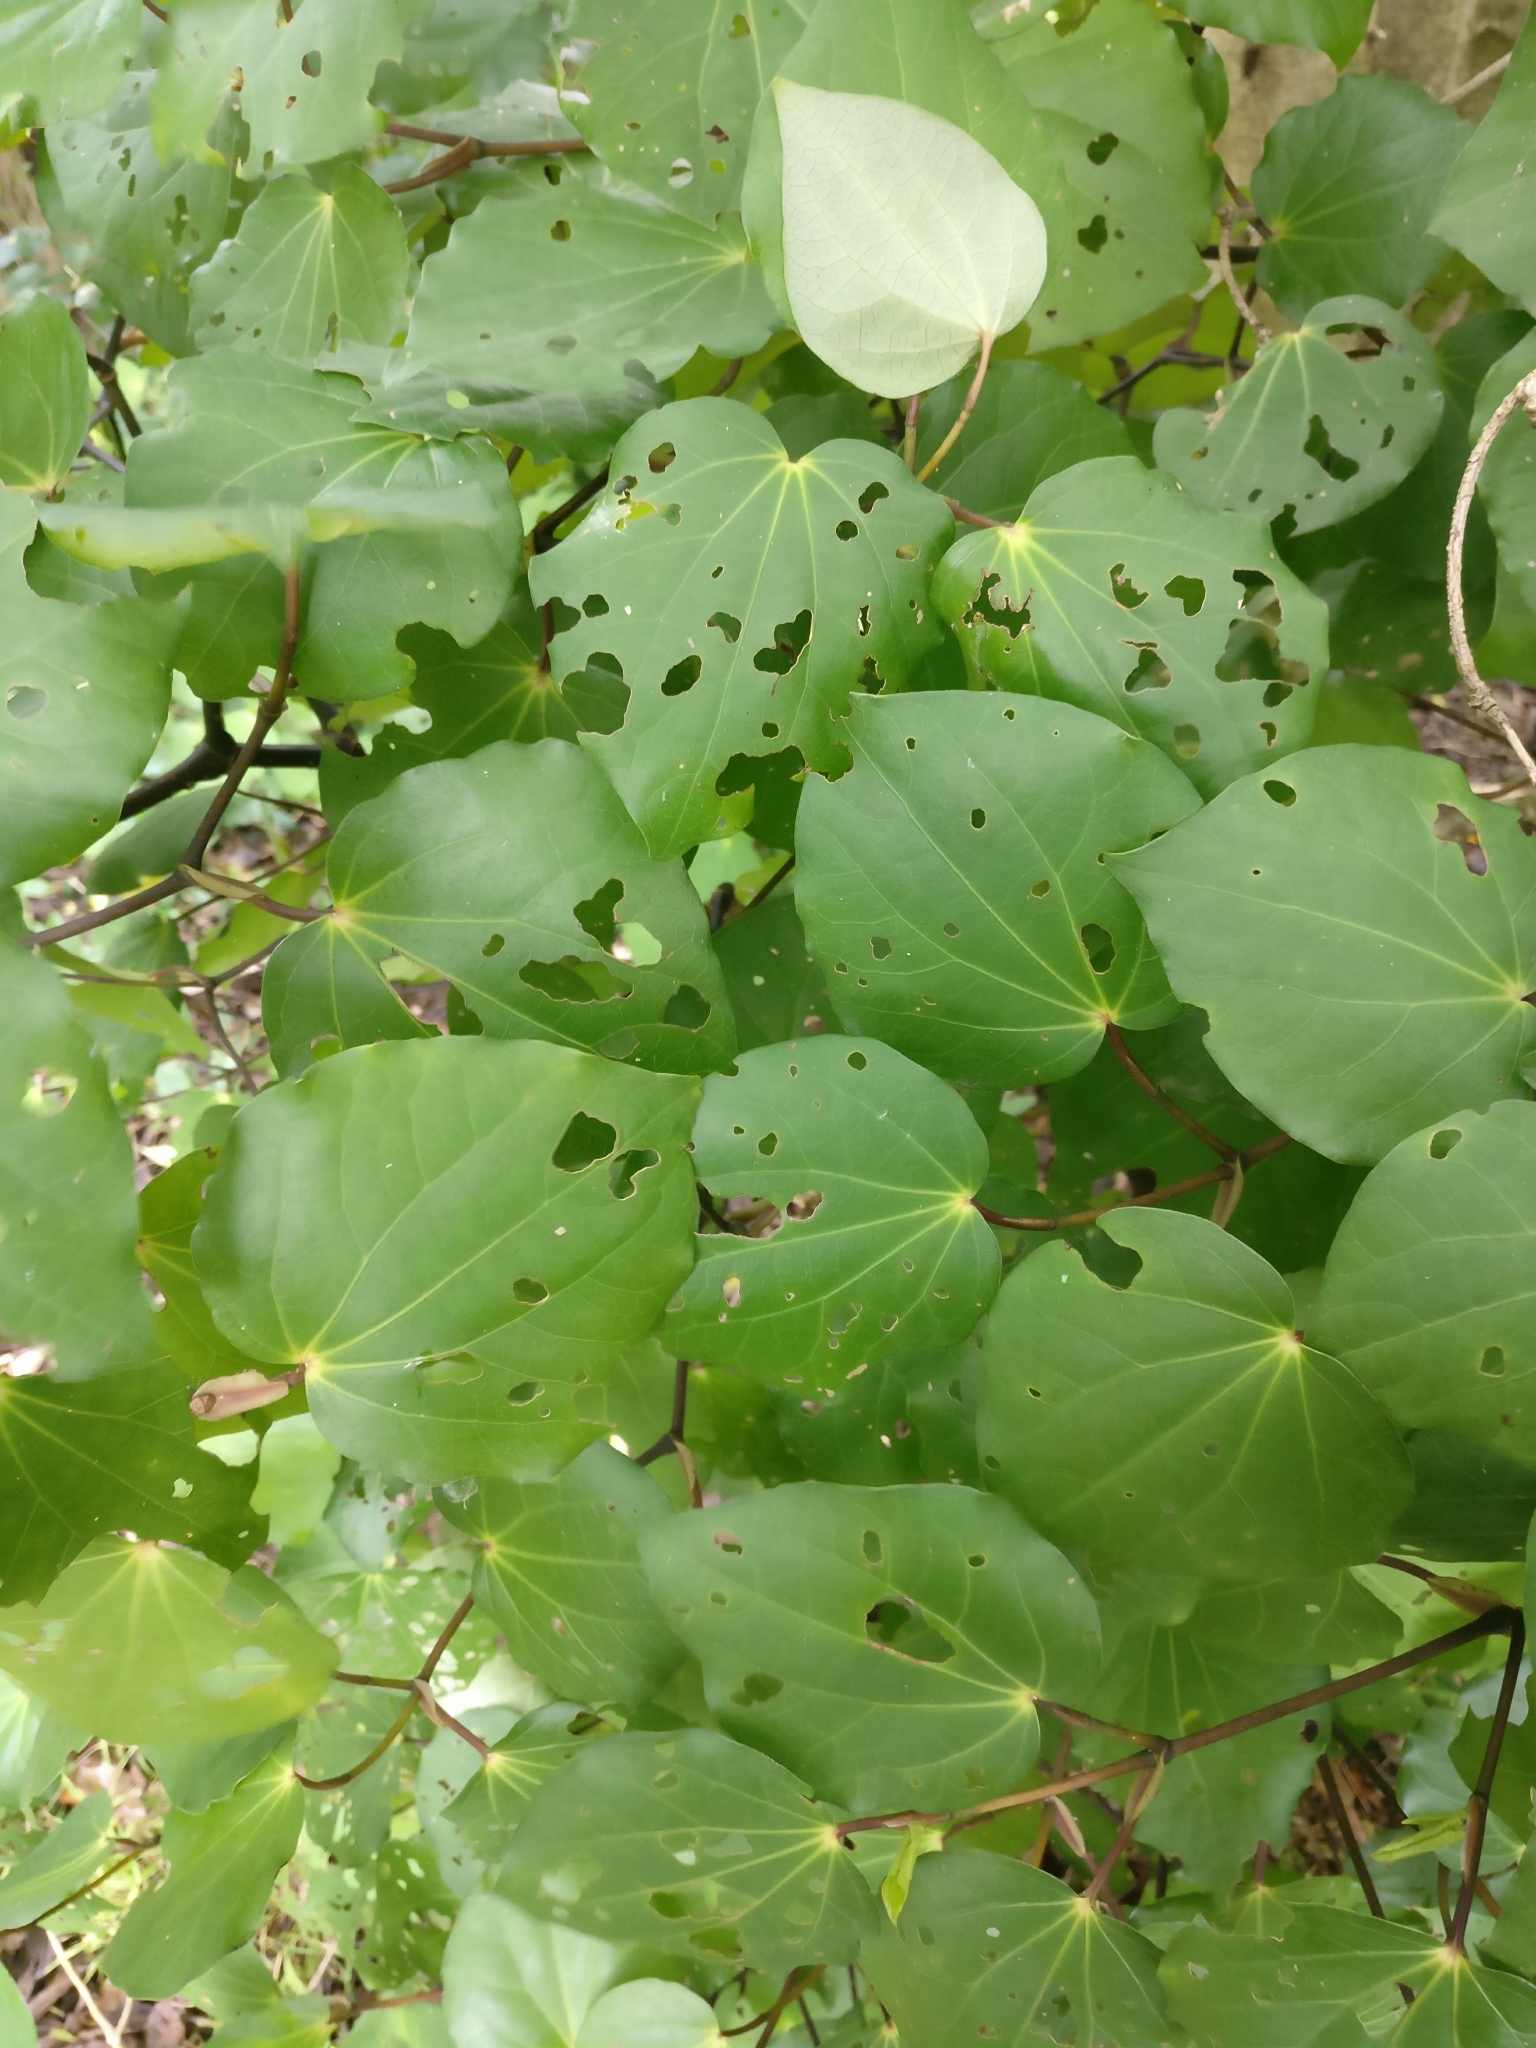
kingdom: Plantae
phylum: Tracheophyta
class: Magnoliopsida
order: Piperales
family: Piperaceae
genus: Macropiper
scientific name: Macropiper excelsum
